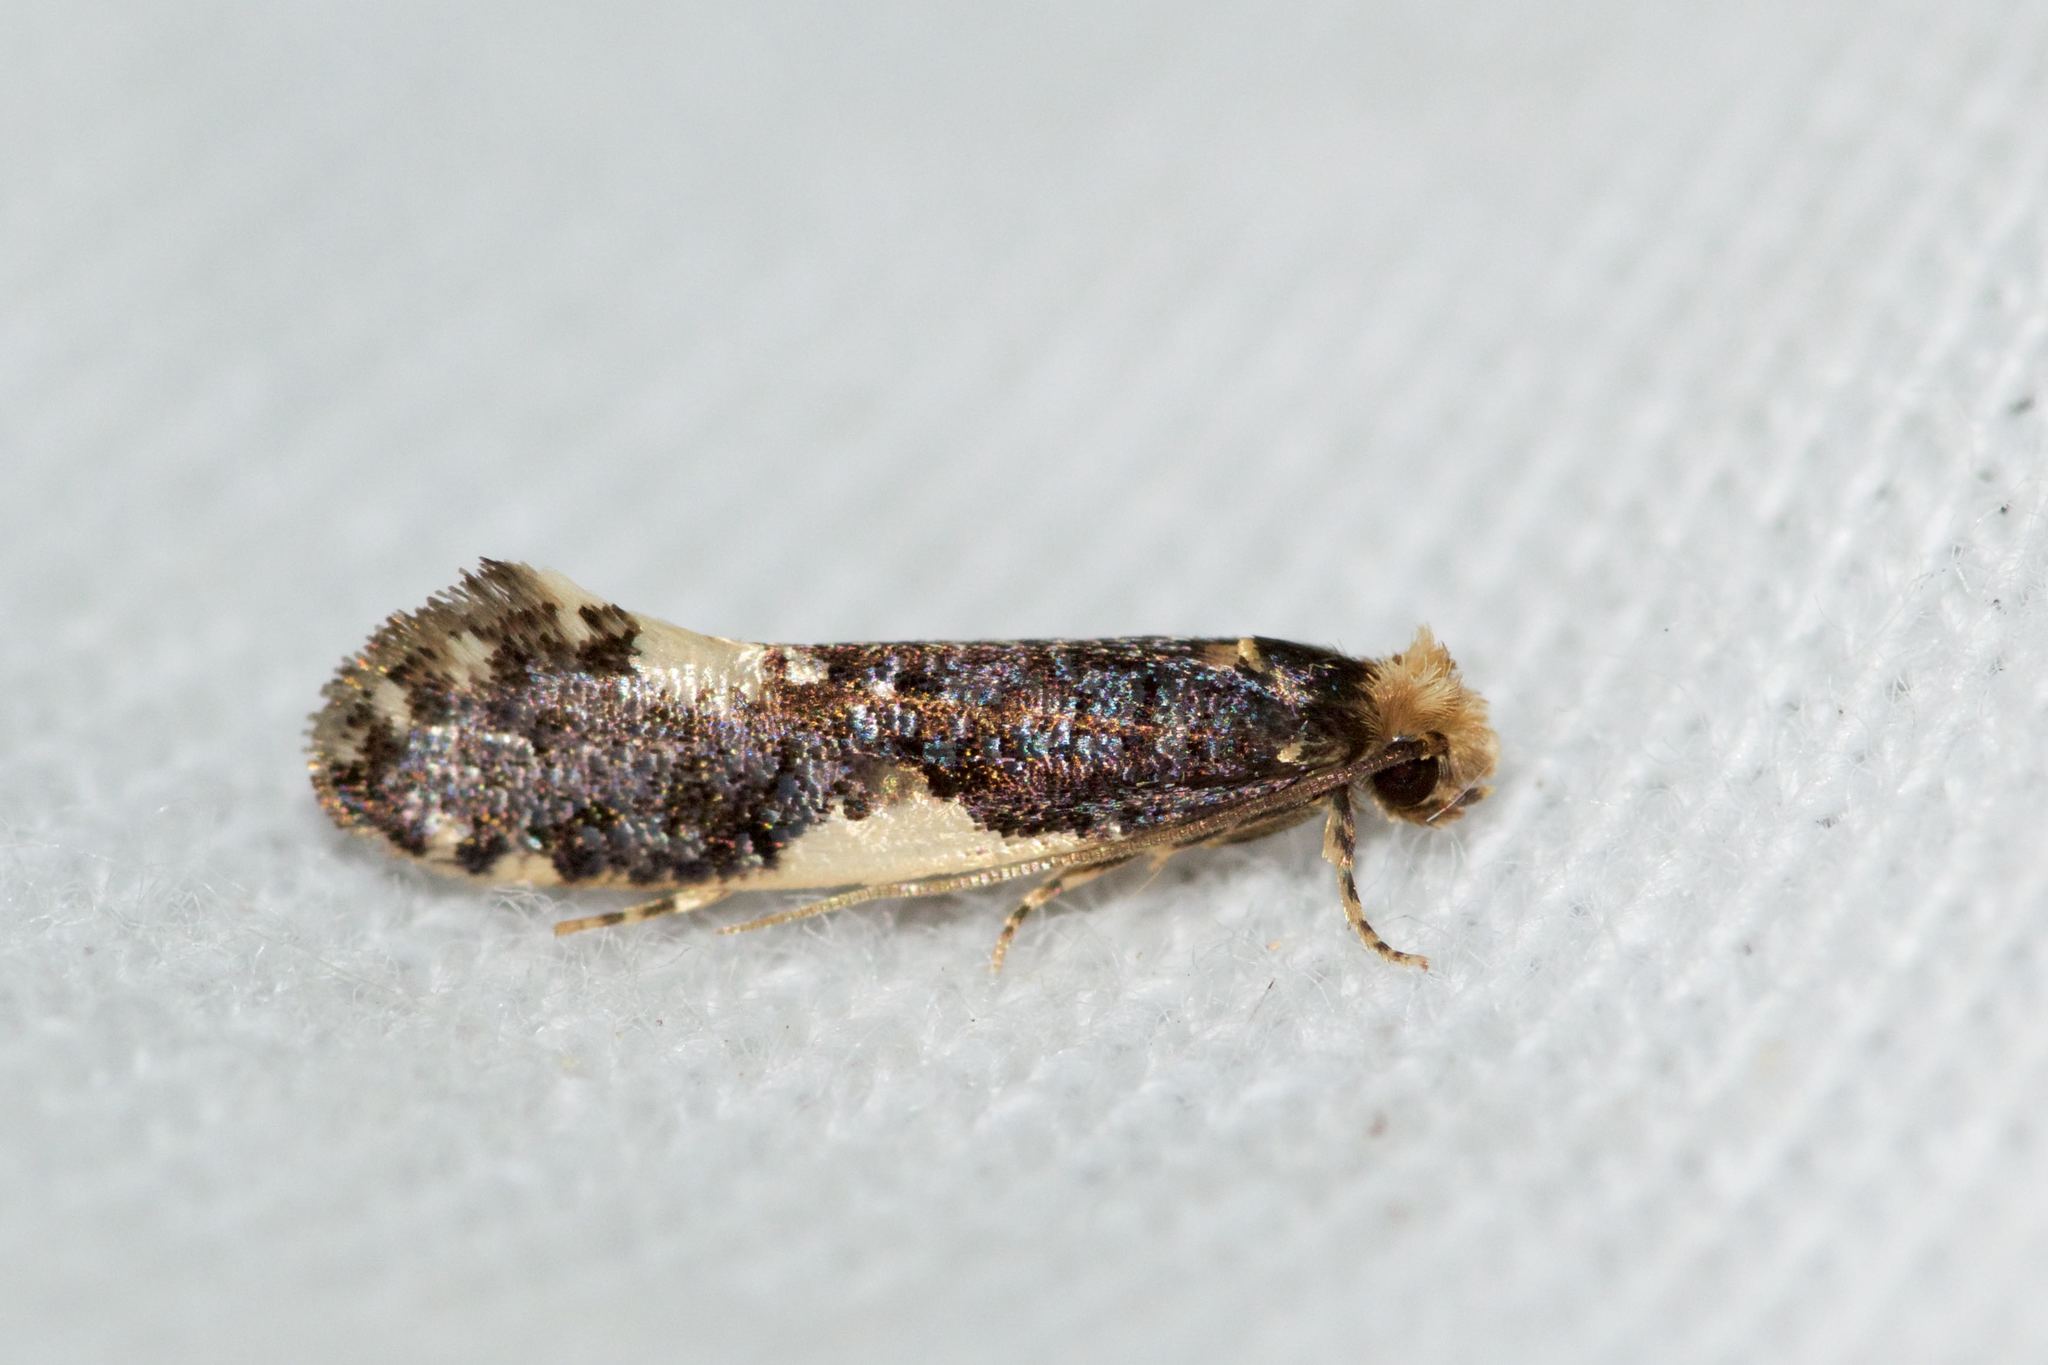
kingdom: Animalia
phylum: Arthropoda
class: Insecta
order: Lepidoptera
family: Tineidae
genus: Monopis
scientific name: Monopis spilotella
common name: Orange-headed monopis
